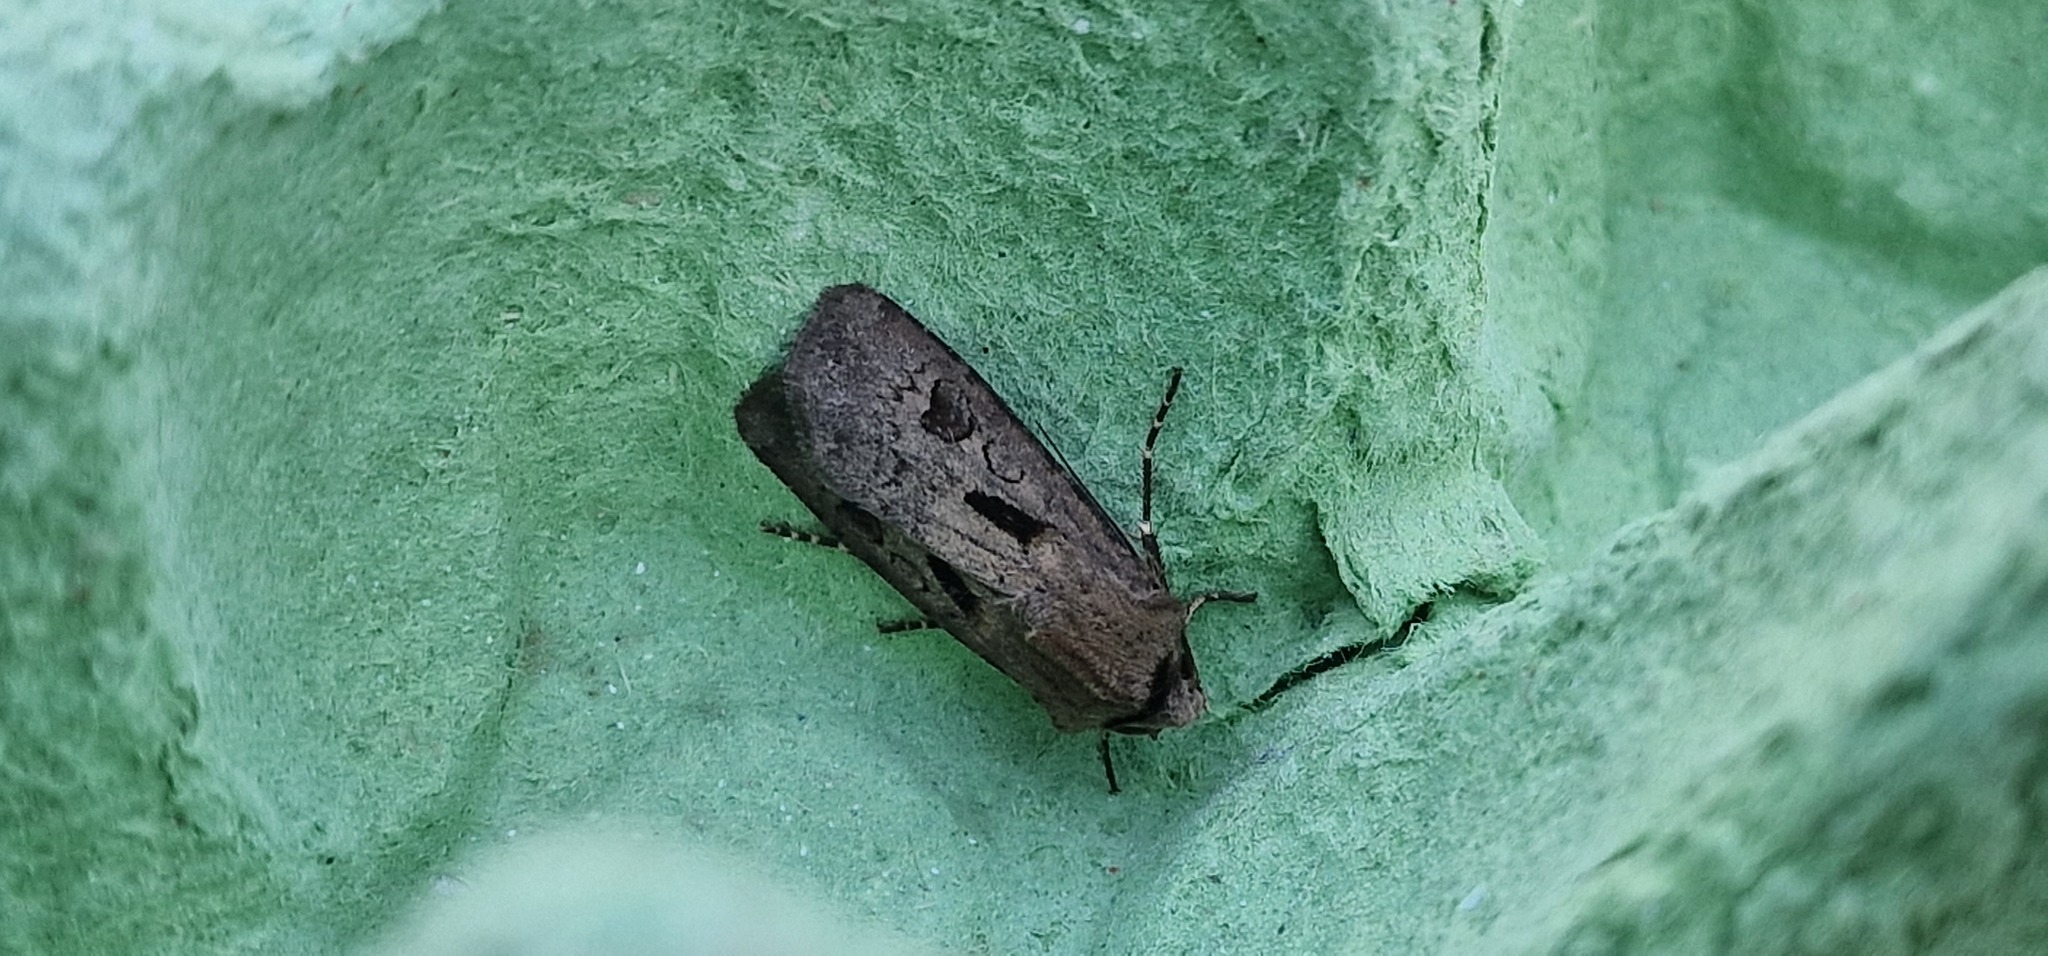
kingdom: Animalia
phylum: Arthropoda
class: Insecta
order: Lepidoptera
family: Noctuidae
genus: Agrotis
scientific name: Agrotis exclamationis
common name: Heart and dart
